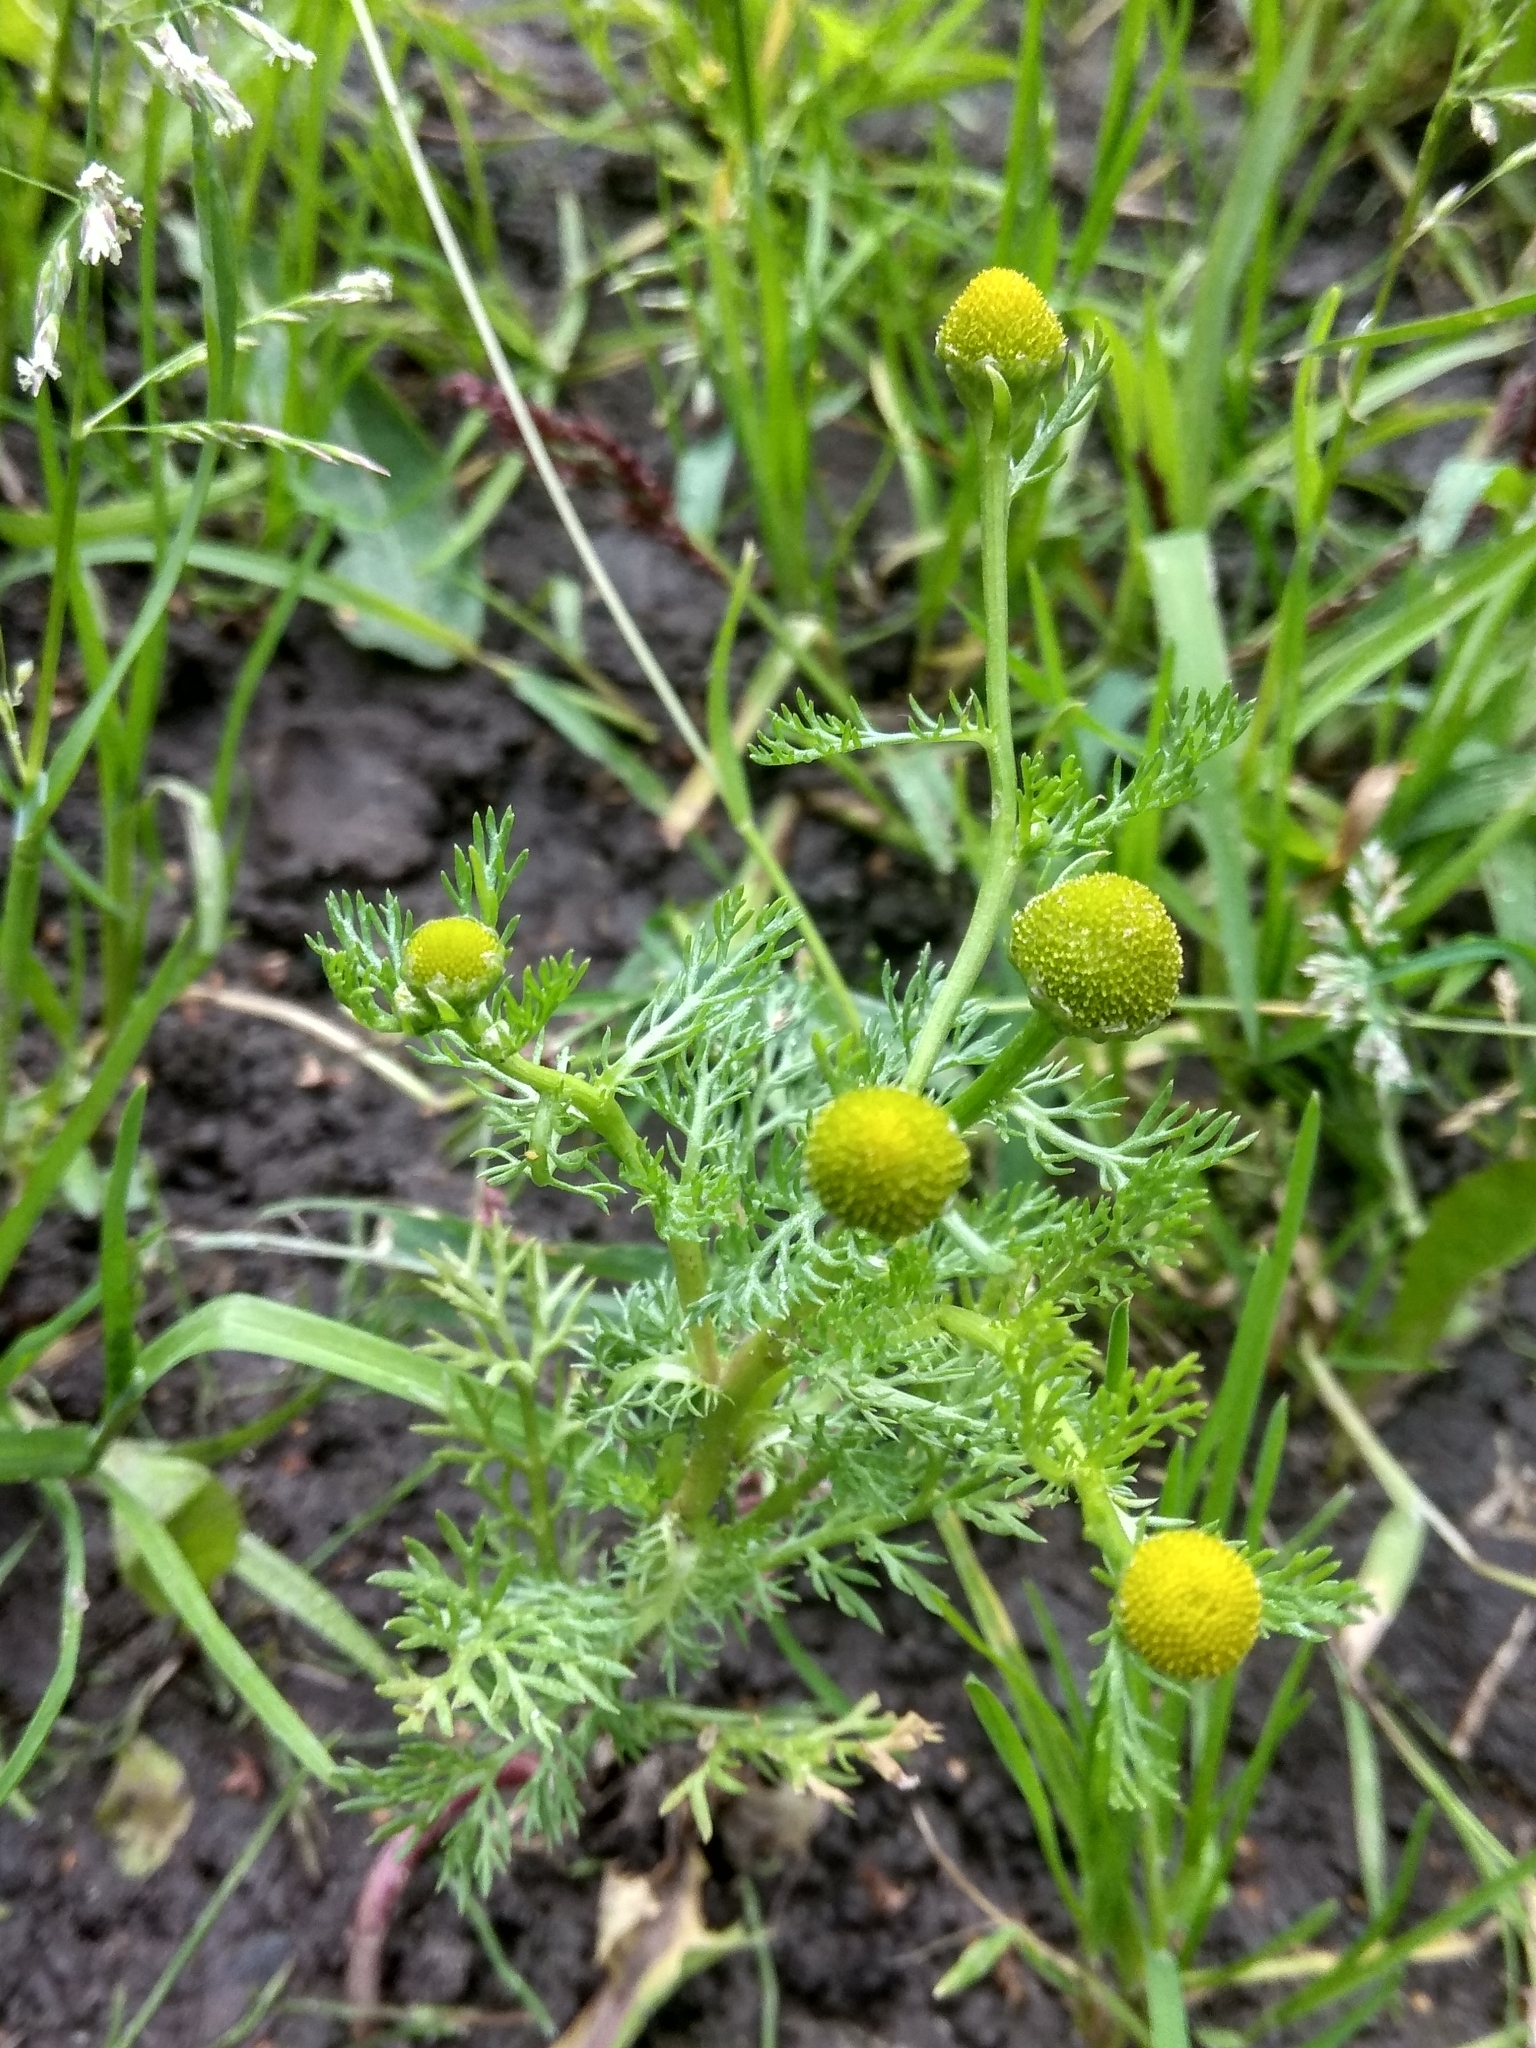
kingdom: Plantae
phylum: Tracheophyta
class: Magnoliopsida
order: Asterales
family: Asteraceae
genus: Matricaria
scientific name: Matricaria discoidea
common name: Disc mayweed
